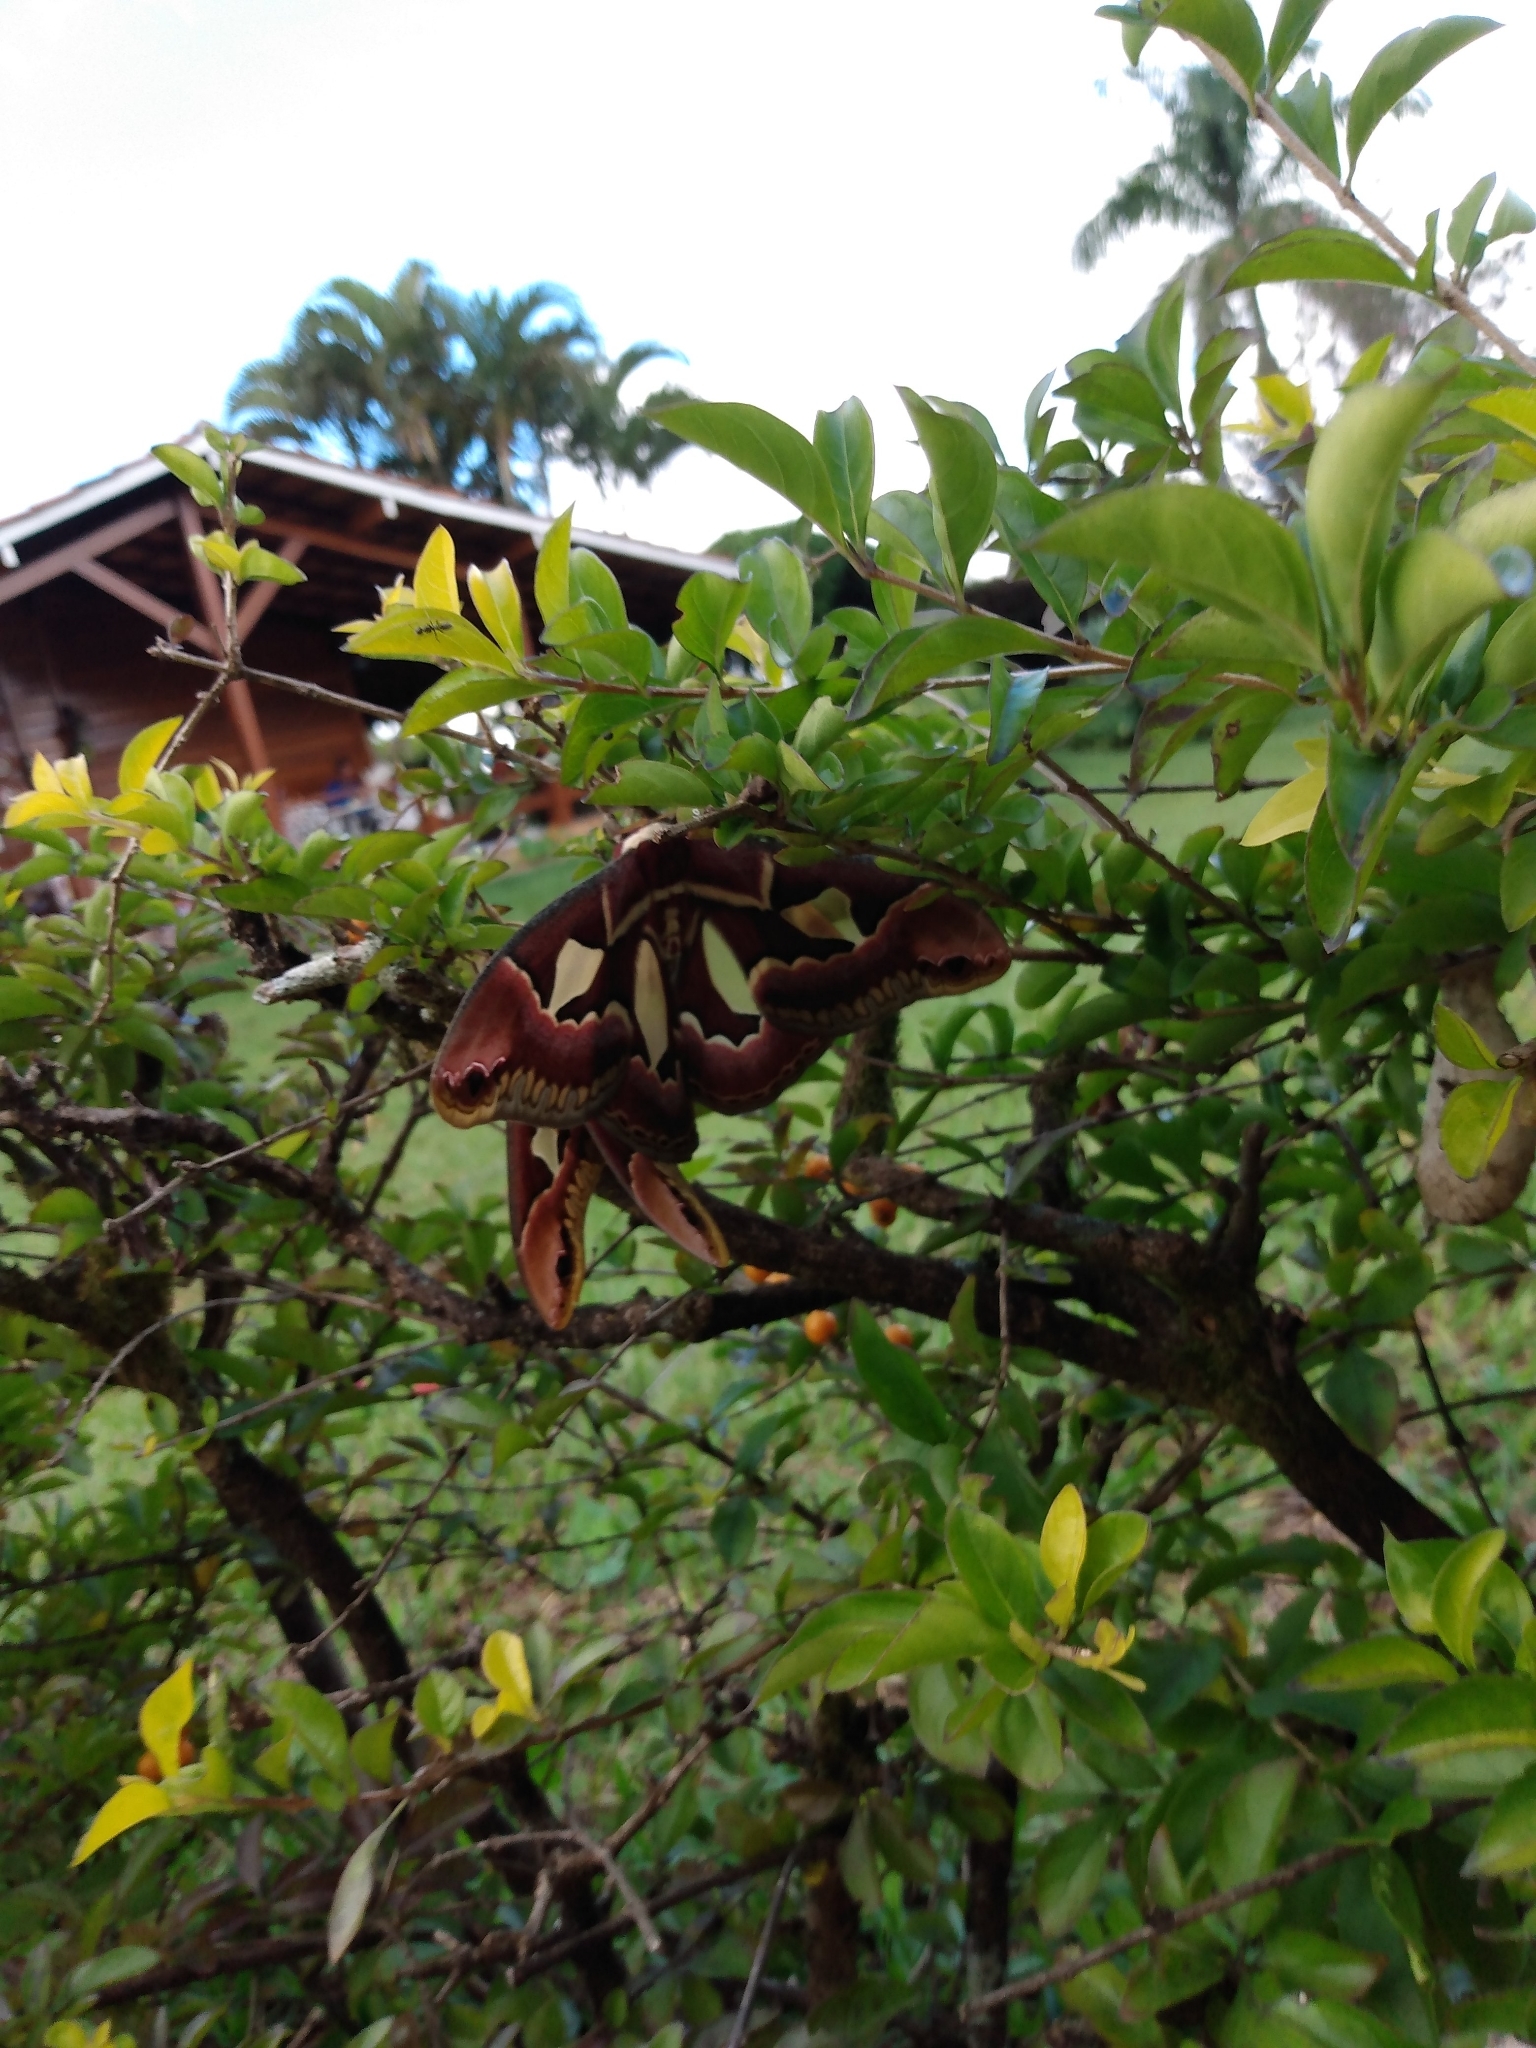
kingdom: Animalia
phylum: Arthropoda
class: Insecta
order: Lepidoptera
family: Saturniidae
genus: Rothschildia
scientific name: Rothschildia jacobaeae
